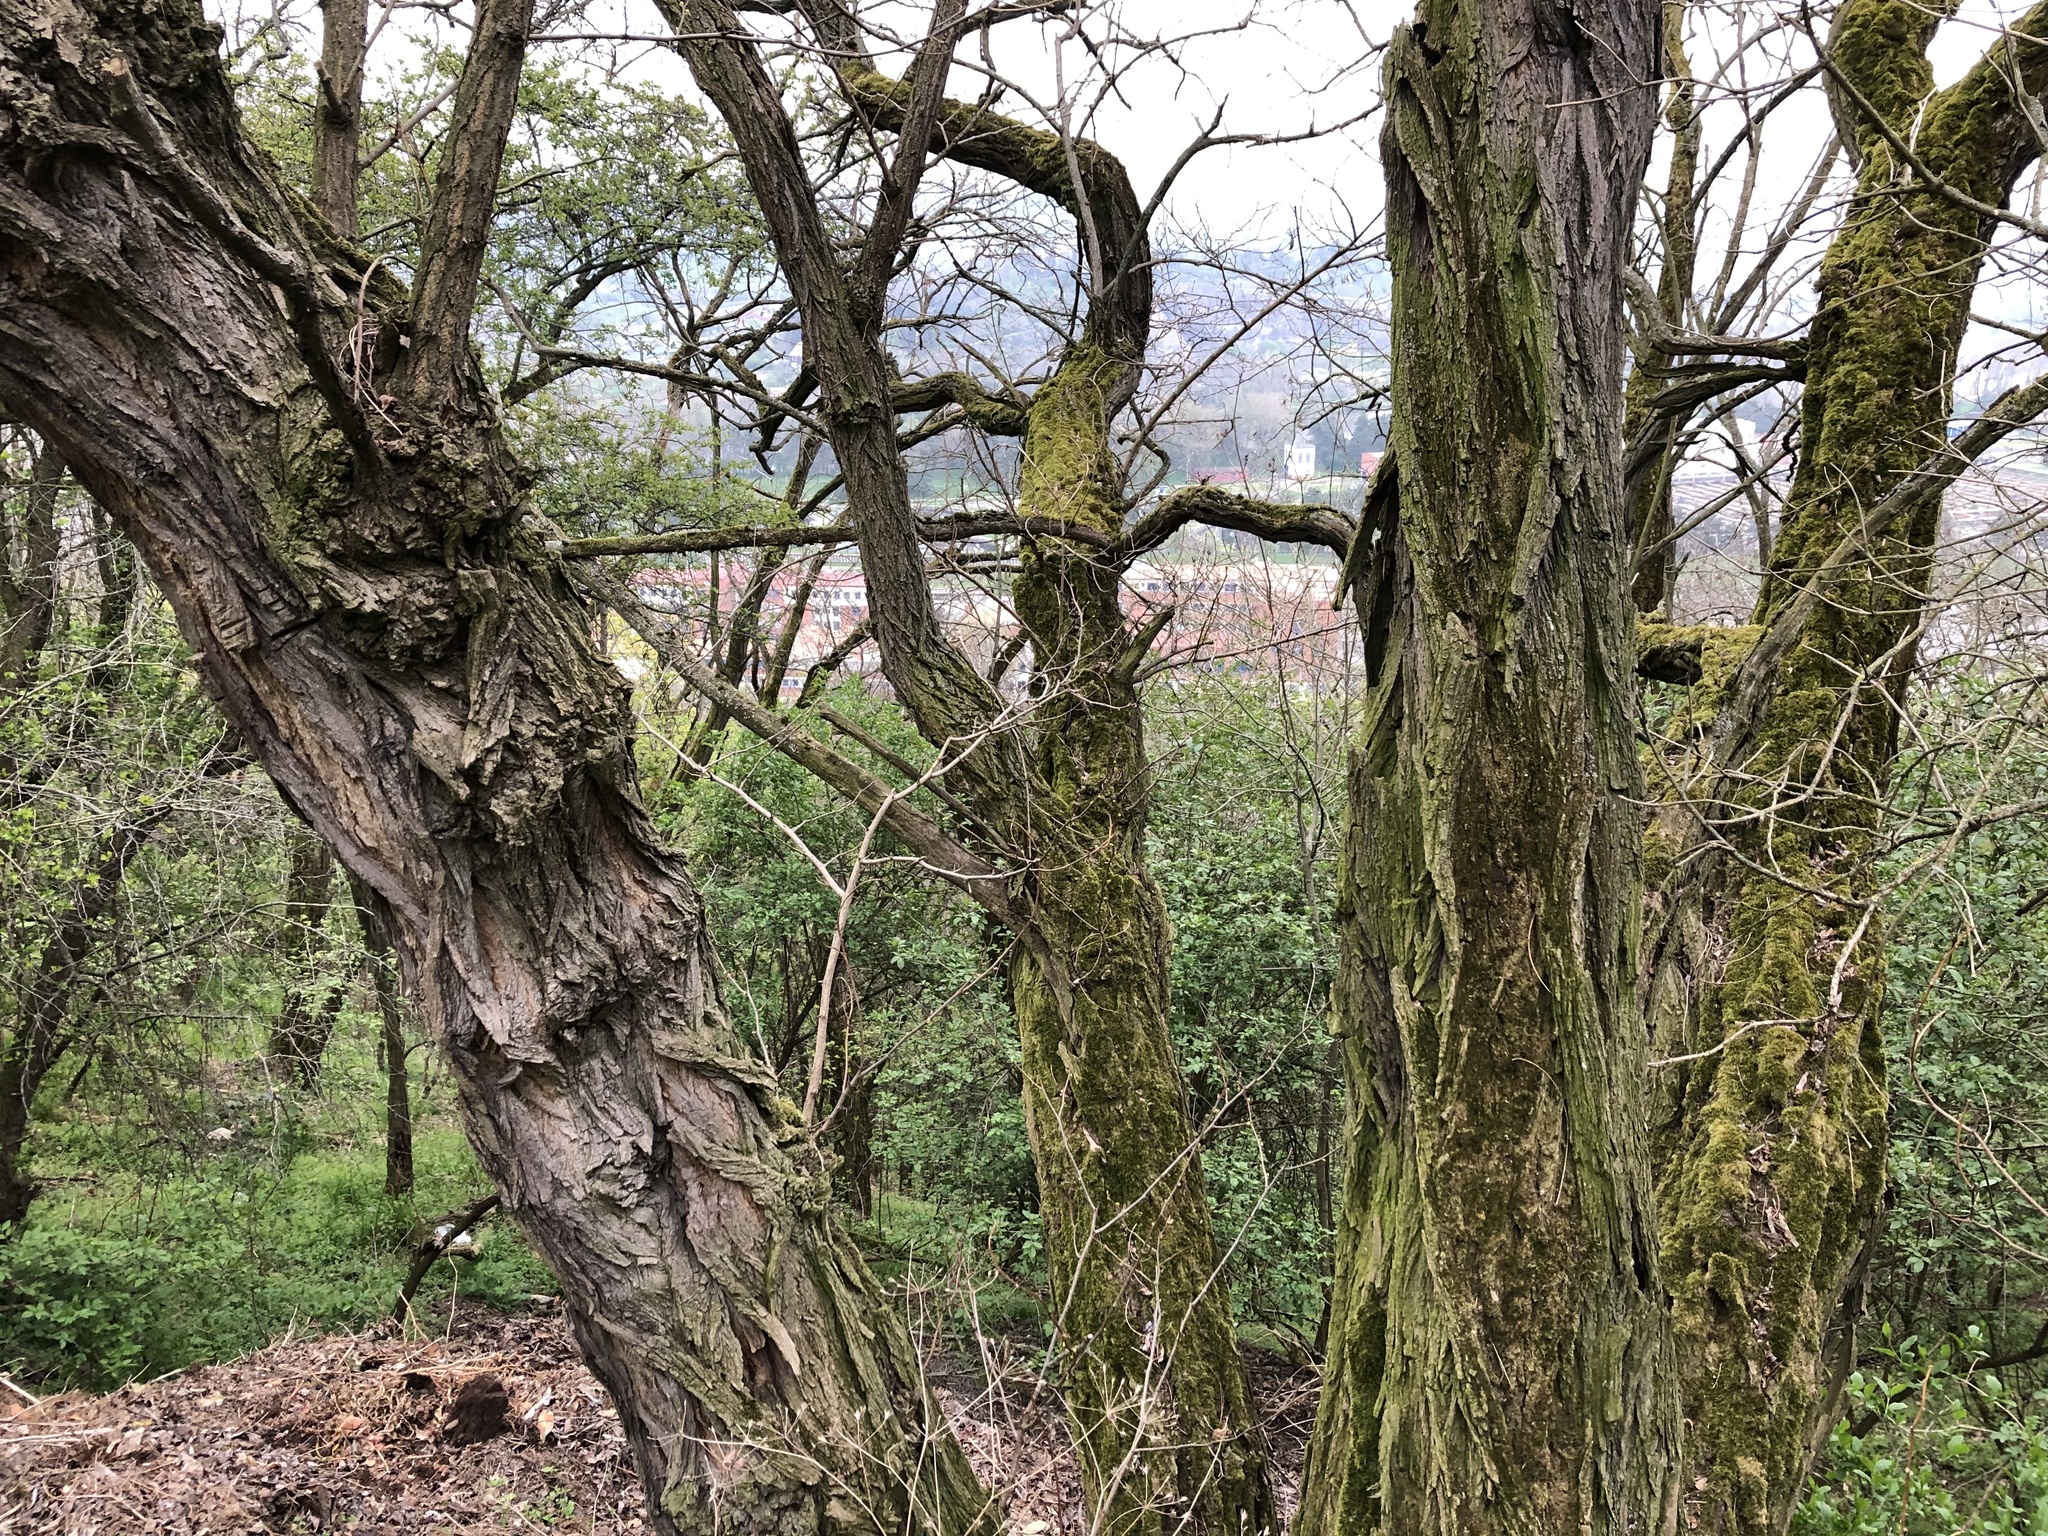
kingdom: Plantae
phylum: Tracheophyta
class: Magnoliopsida
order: Fabales
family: Fabaceae
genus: Robinia
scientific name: Robinia pseudoacacia
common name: Black locust
